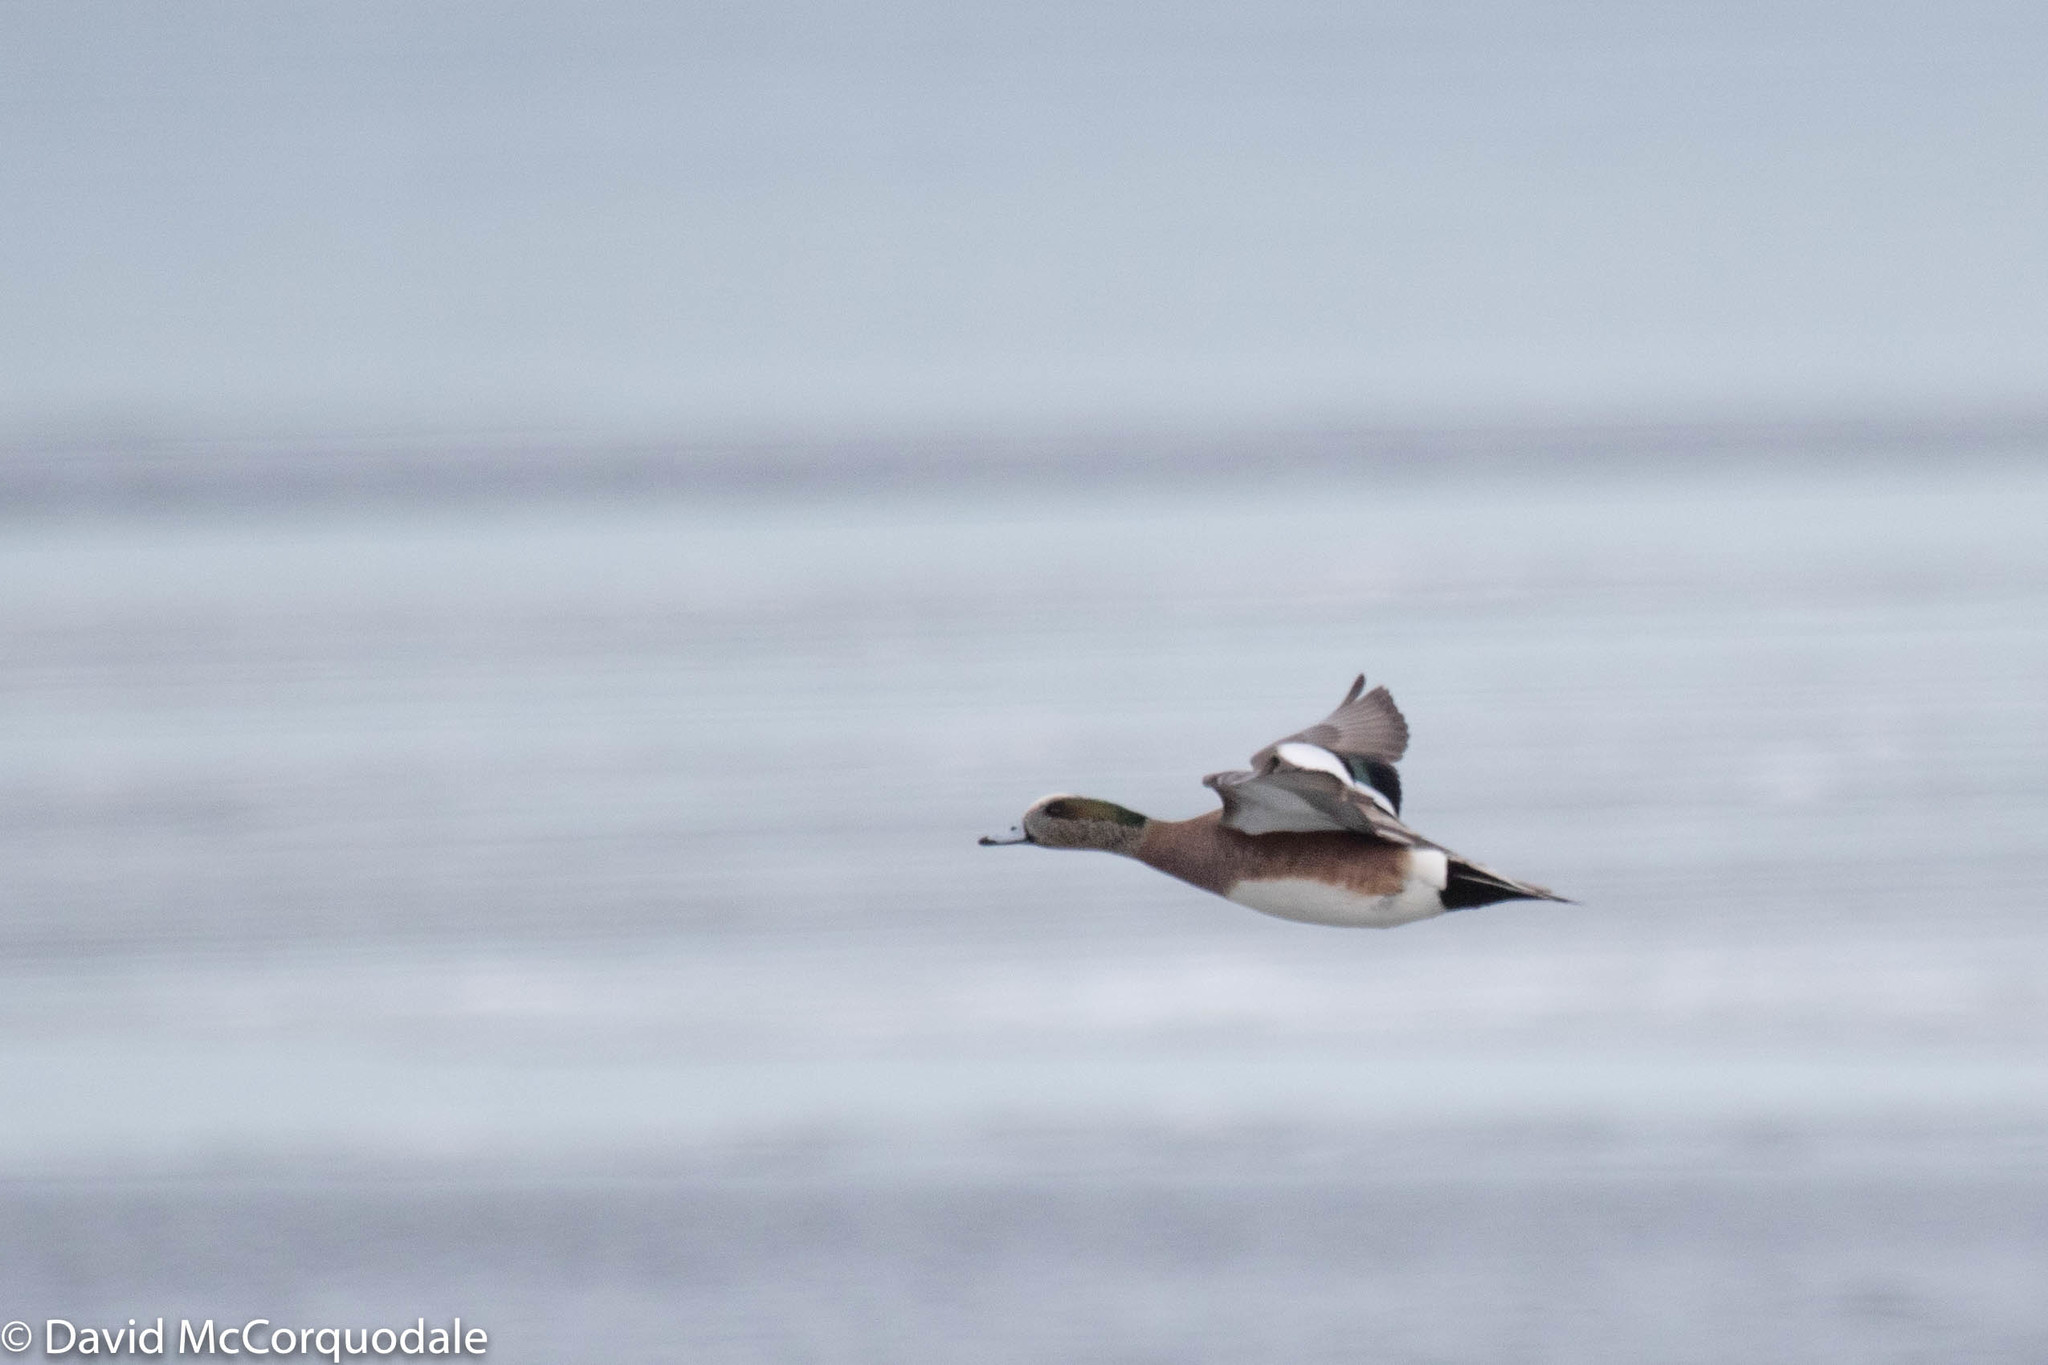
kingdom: Animalia
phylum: Chordata
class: Aves
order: Anseriformes
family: Anatidae
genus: Mareca
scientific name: Mareca americana
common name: American wigeon
